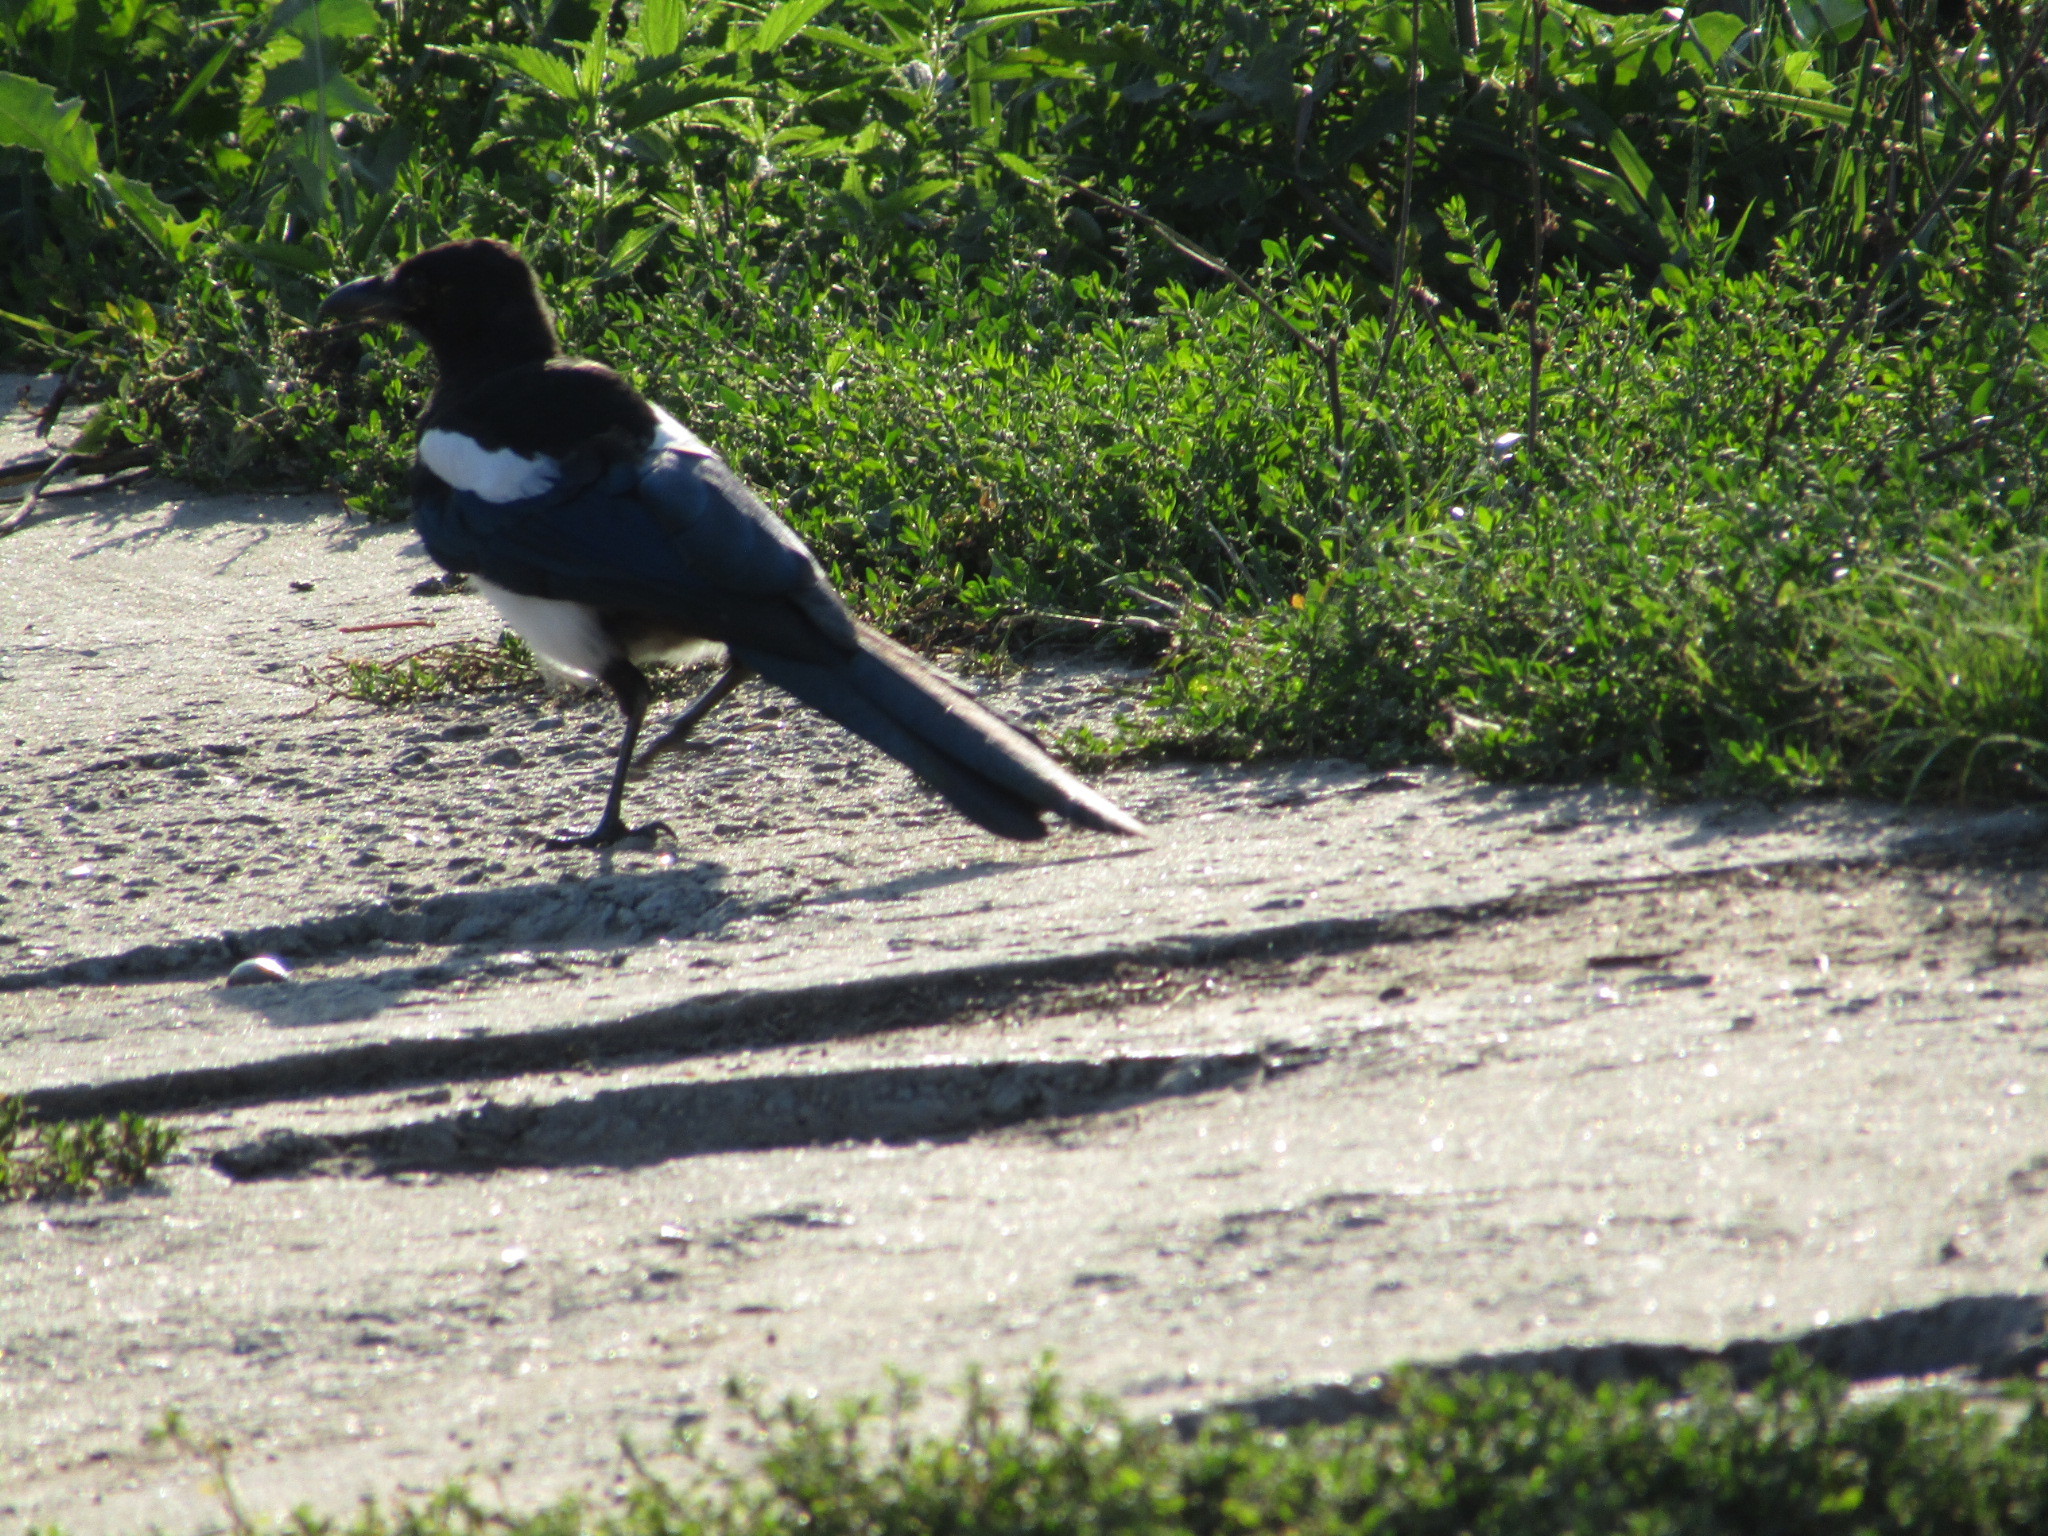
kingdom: Animalia
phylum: Chordata
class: Aves
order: Passeriformes
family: Corvidae
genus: Pica
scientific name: Pica pica
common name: Eurasian magpie
